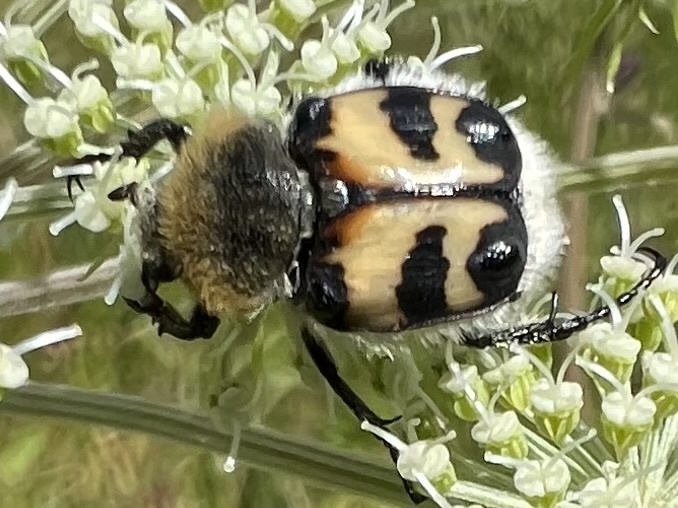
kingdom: Animalia
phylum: Arthropoda
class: Insecta
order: Coleoptera
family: Scarabaeidae
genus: Trichius
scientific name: Trichius fasciatus
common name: Bee beetle
